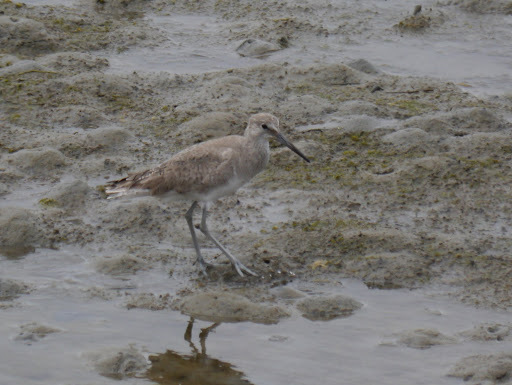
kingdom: Animalia
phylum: Chordata
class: Aves
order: Charadriiformes
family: Scolopacidae
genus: Tringa
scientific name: Tringa semipalmata
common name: Willet
